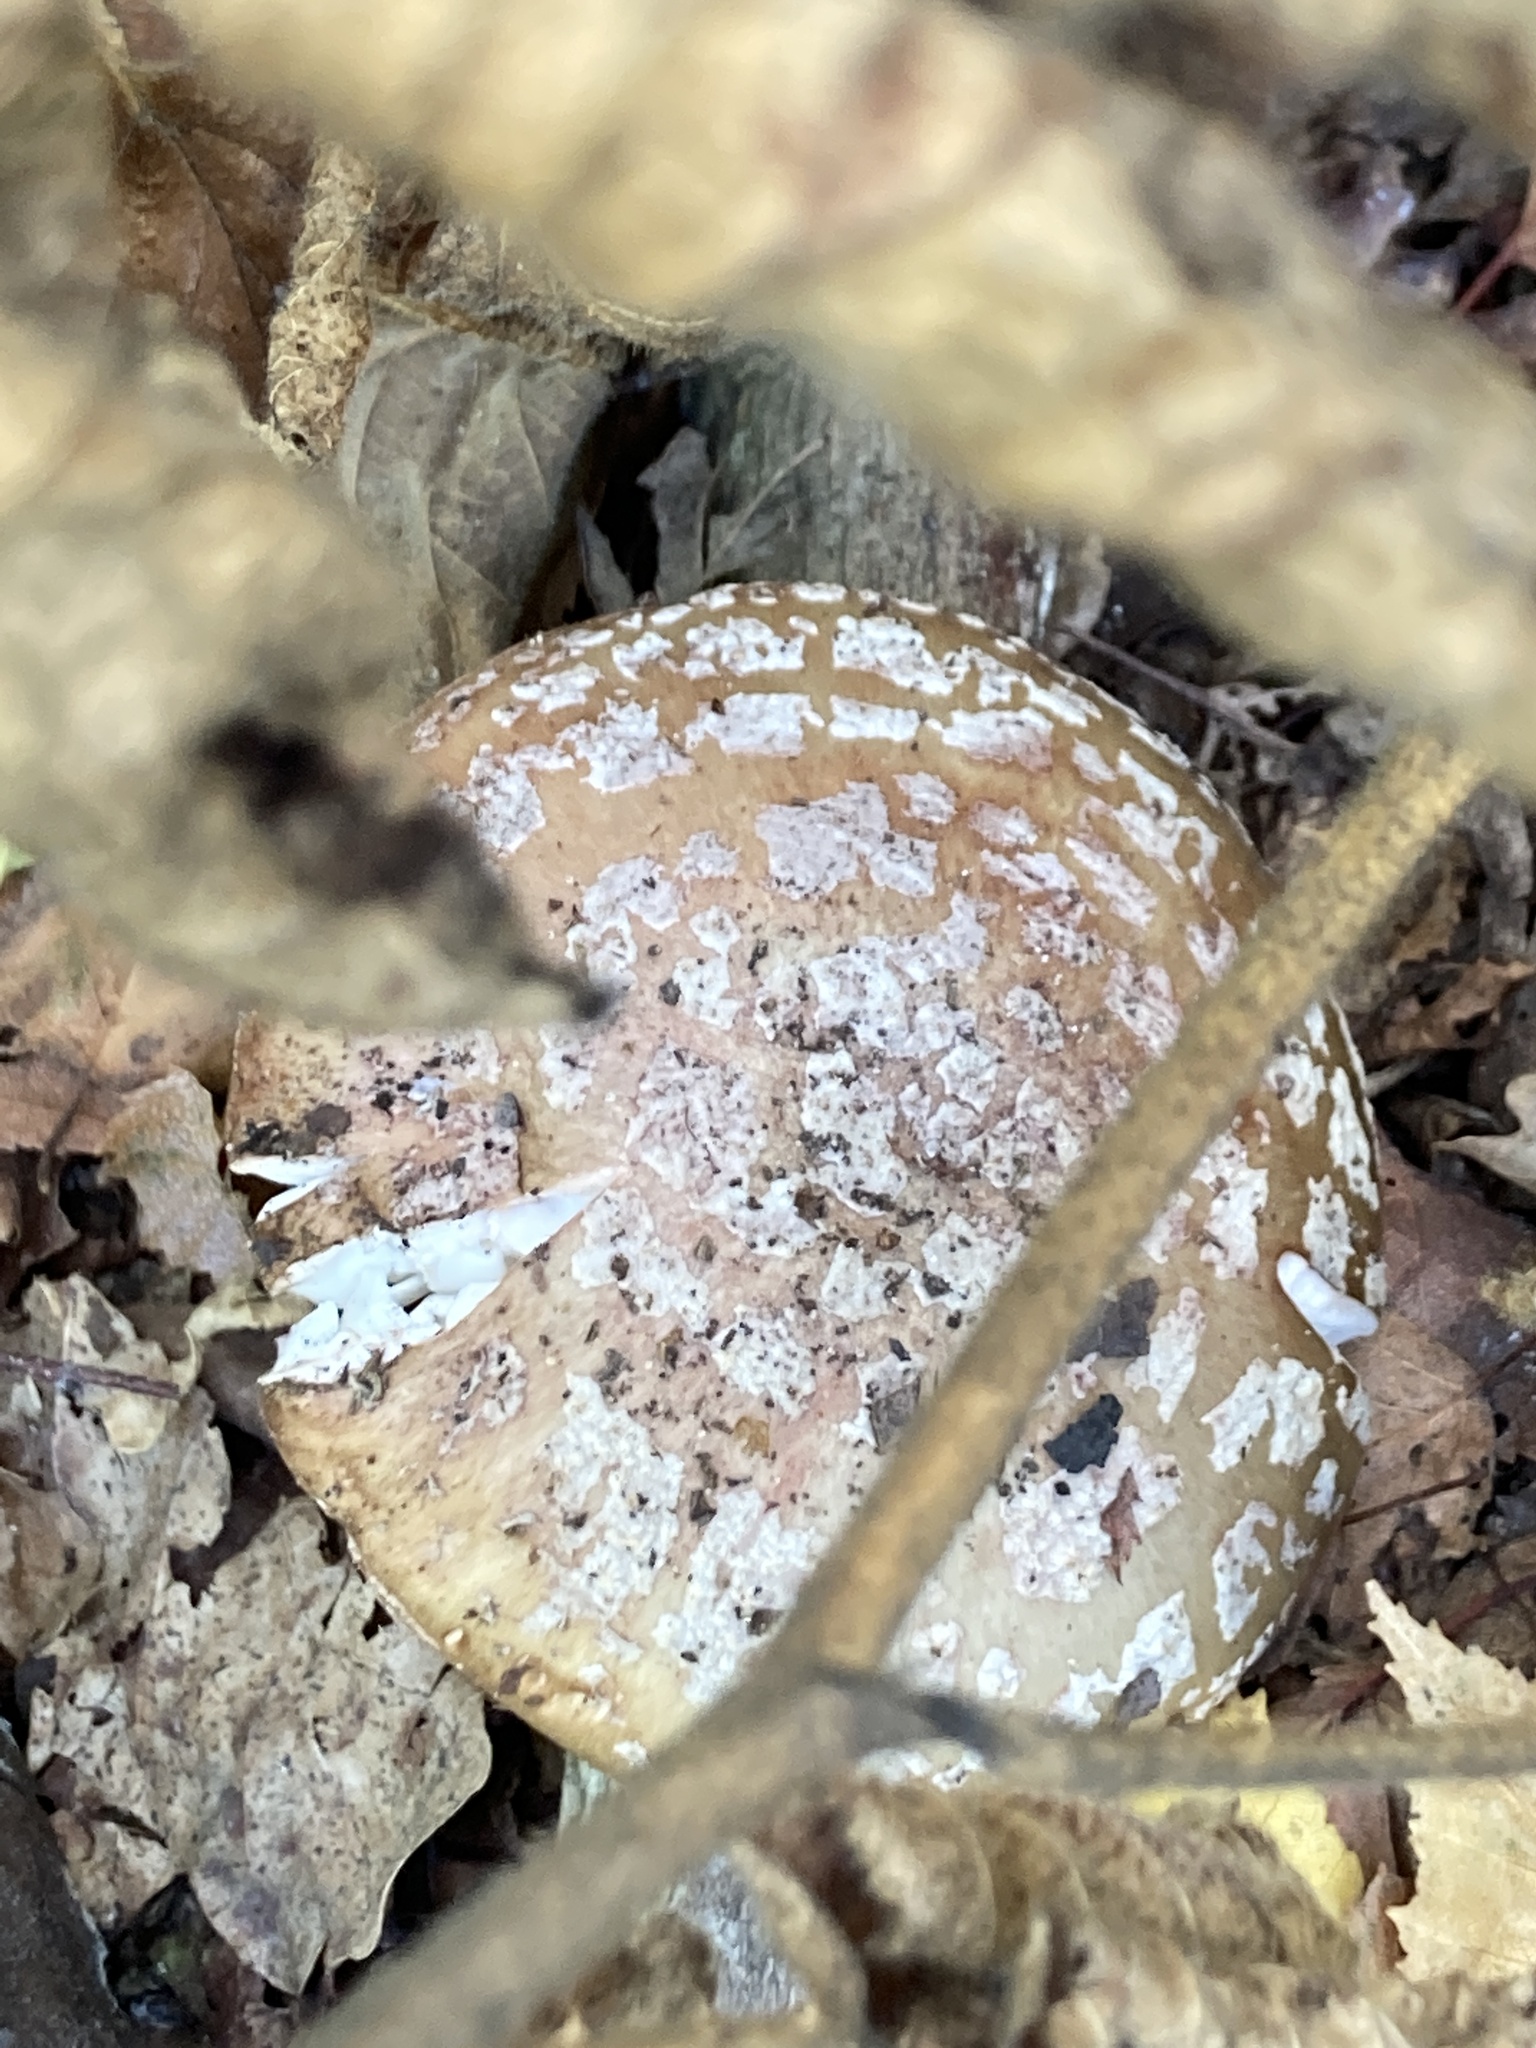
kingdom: Fungi
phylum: Basidiomycota
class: Agaricomycetes
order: Agaricales
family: Amanitaceae
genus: Amanita
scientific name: Amanita rubescens
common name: Blusher
